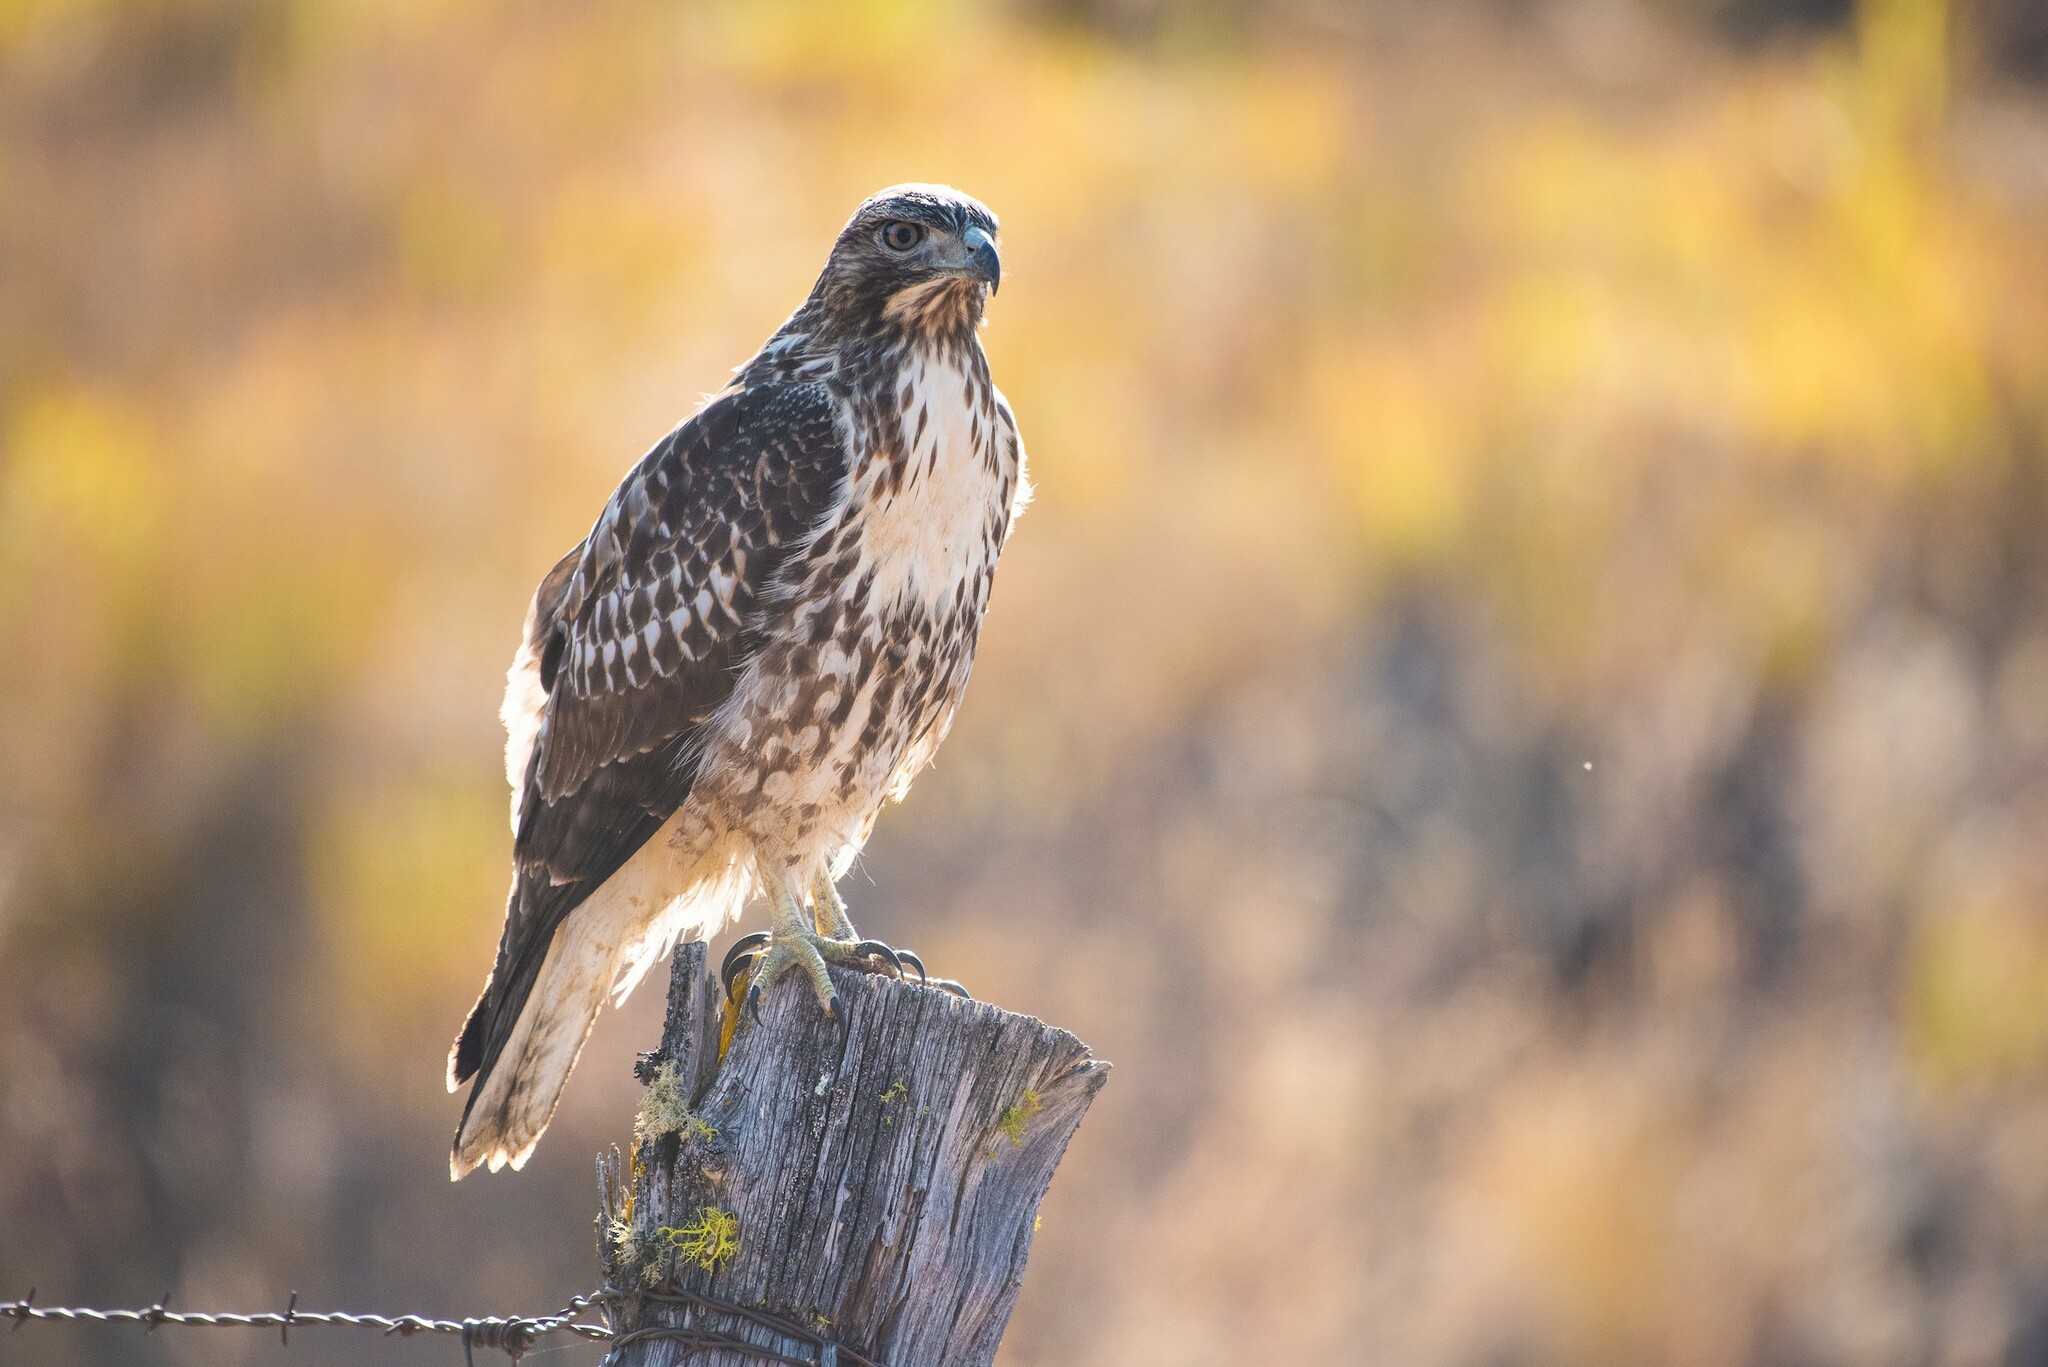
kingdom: Animalia
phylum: Chordata
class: Aves
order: Accipitriformes
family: Accipitridae
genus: Buteo
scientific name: Buteo jamaicensis
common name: Red-tailed hawk
